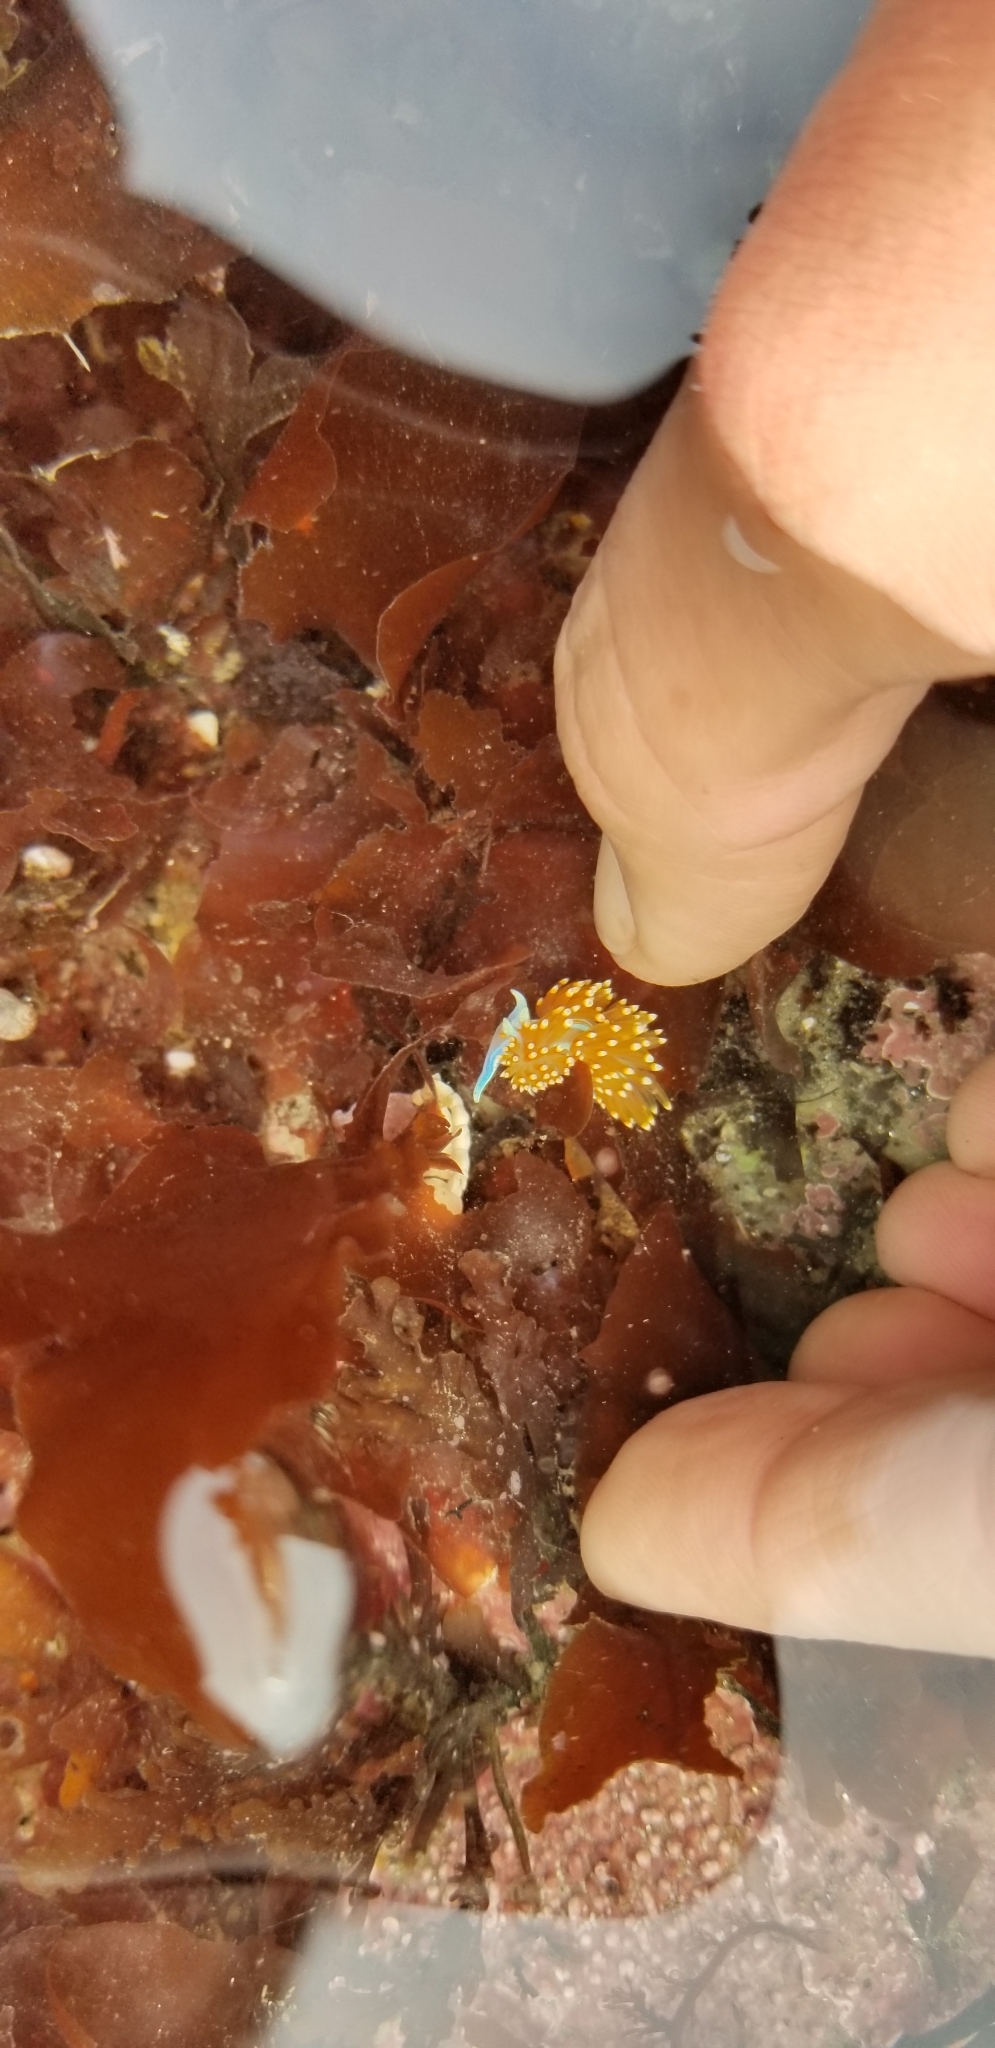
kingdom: Animalia
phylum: Mollusca
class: Gastropoda
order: Nudibranchia
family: Myrrhinidae
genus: Hermissenda
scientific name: Hermissenda opalescens
